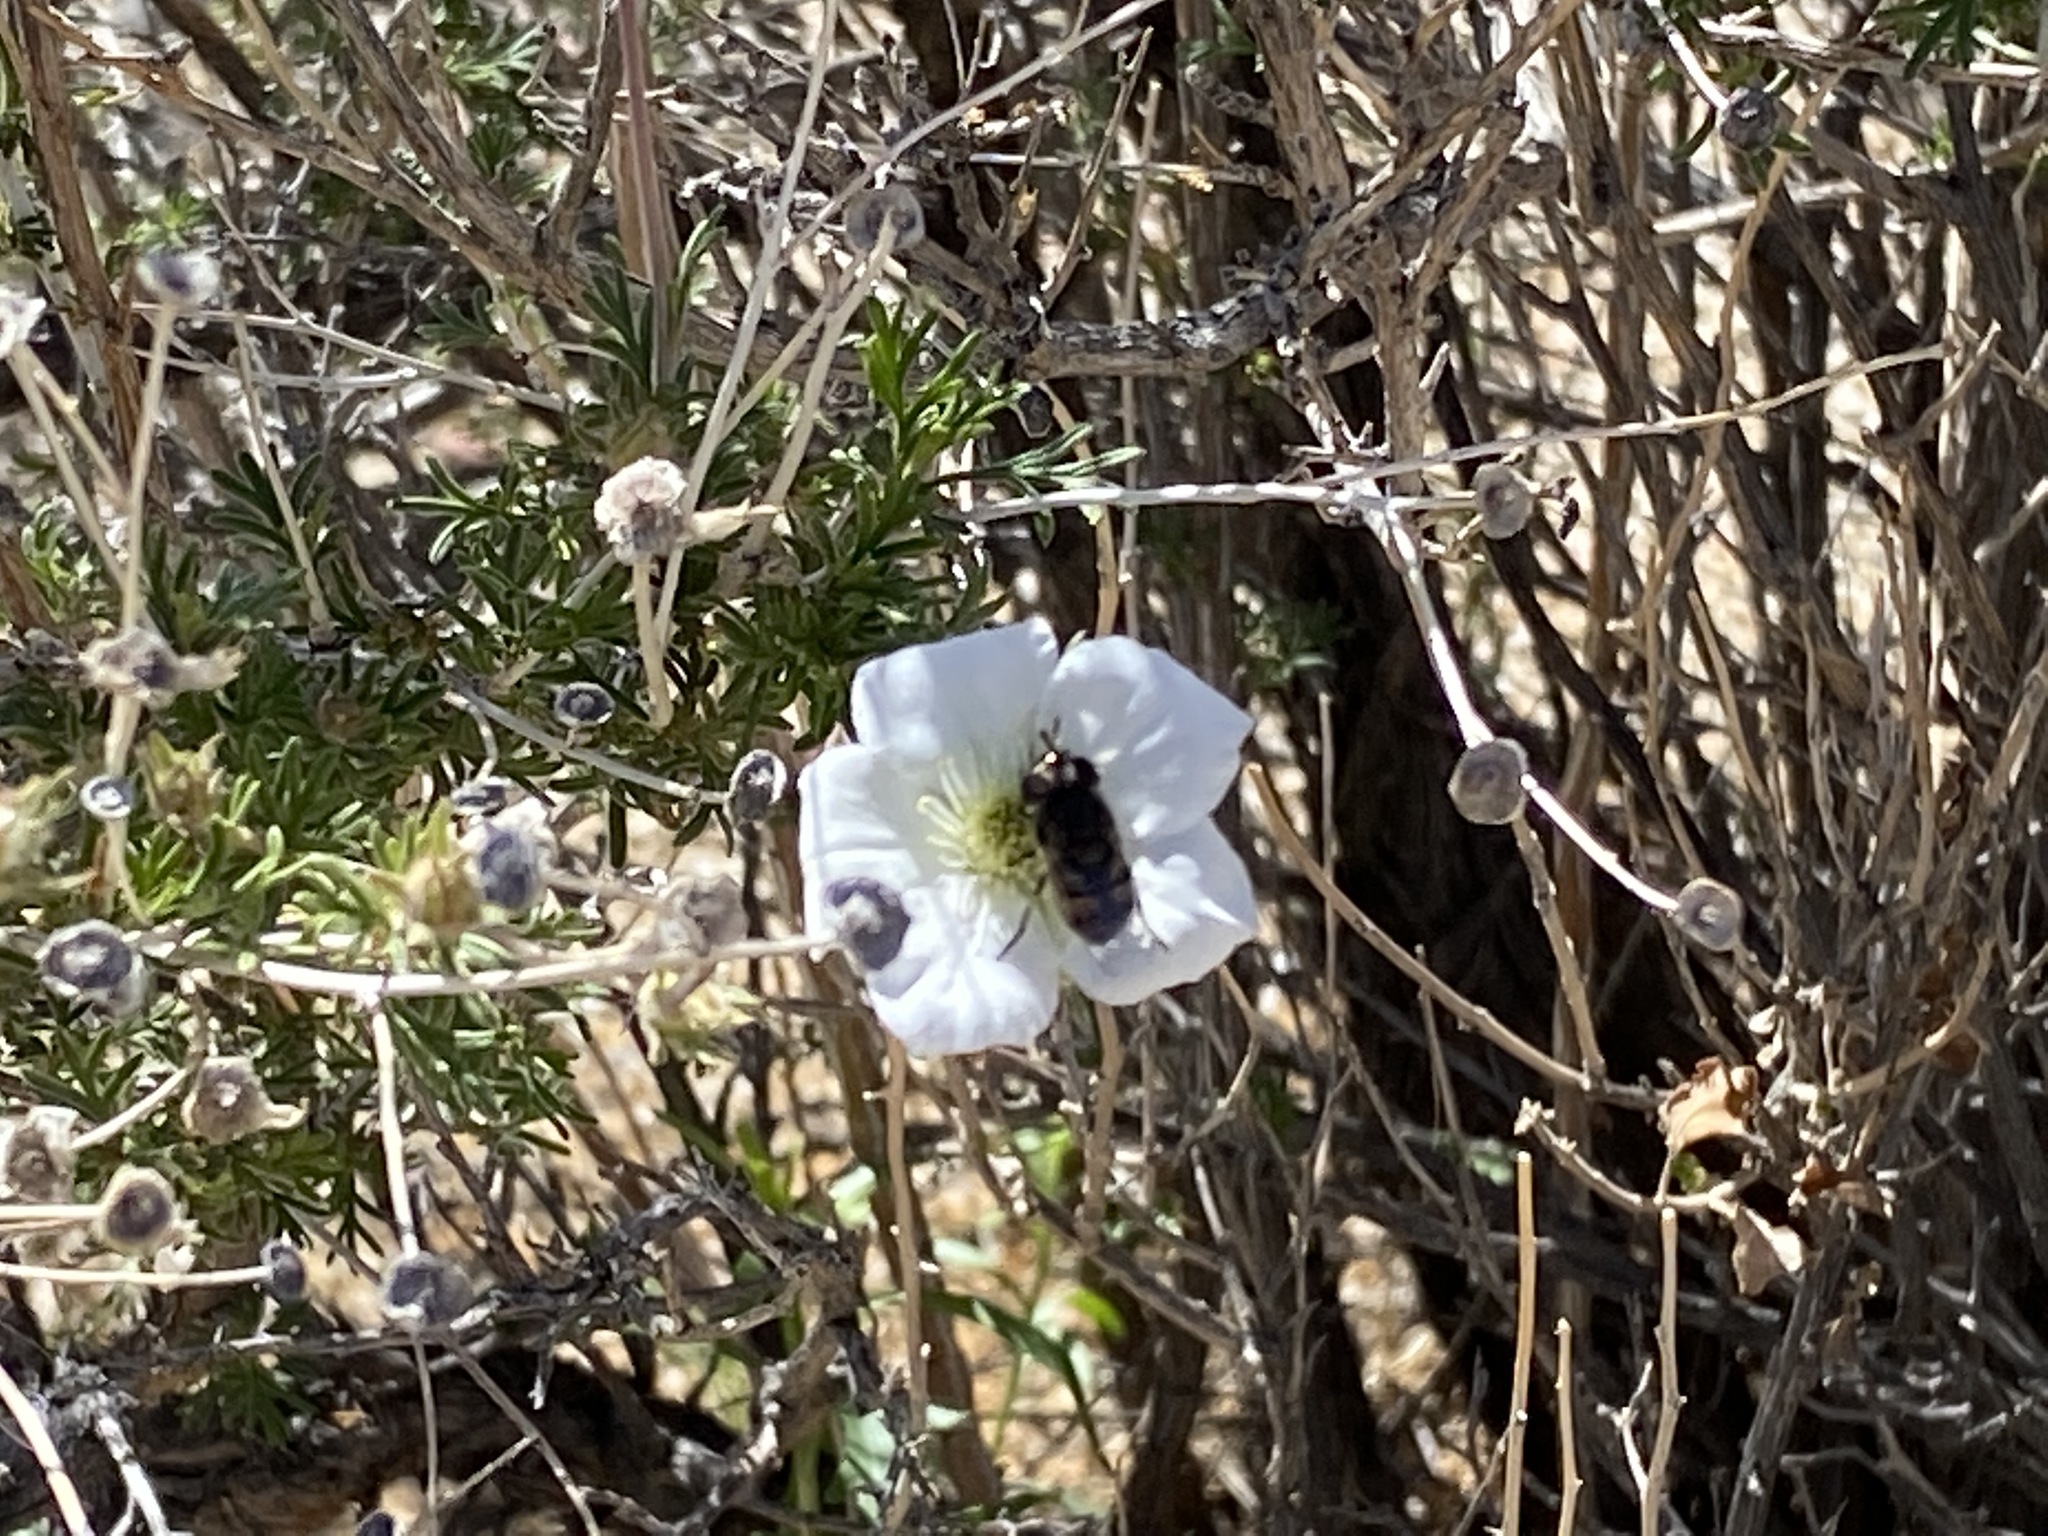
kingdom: Plantae
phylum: Tracheophyta
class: Magnoliopsida
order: Rosales
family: Rosaceae
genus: Fallugia
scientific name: Fallugia paradoxa
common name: Apache-plume
